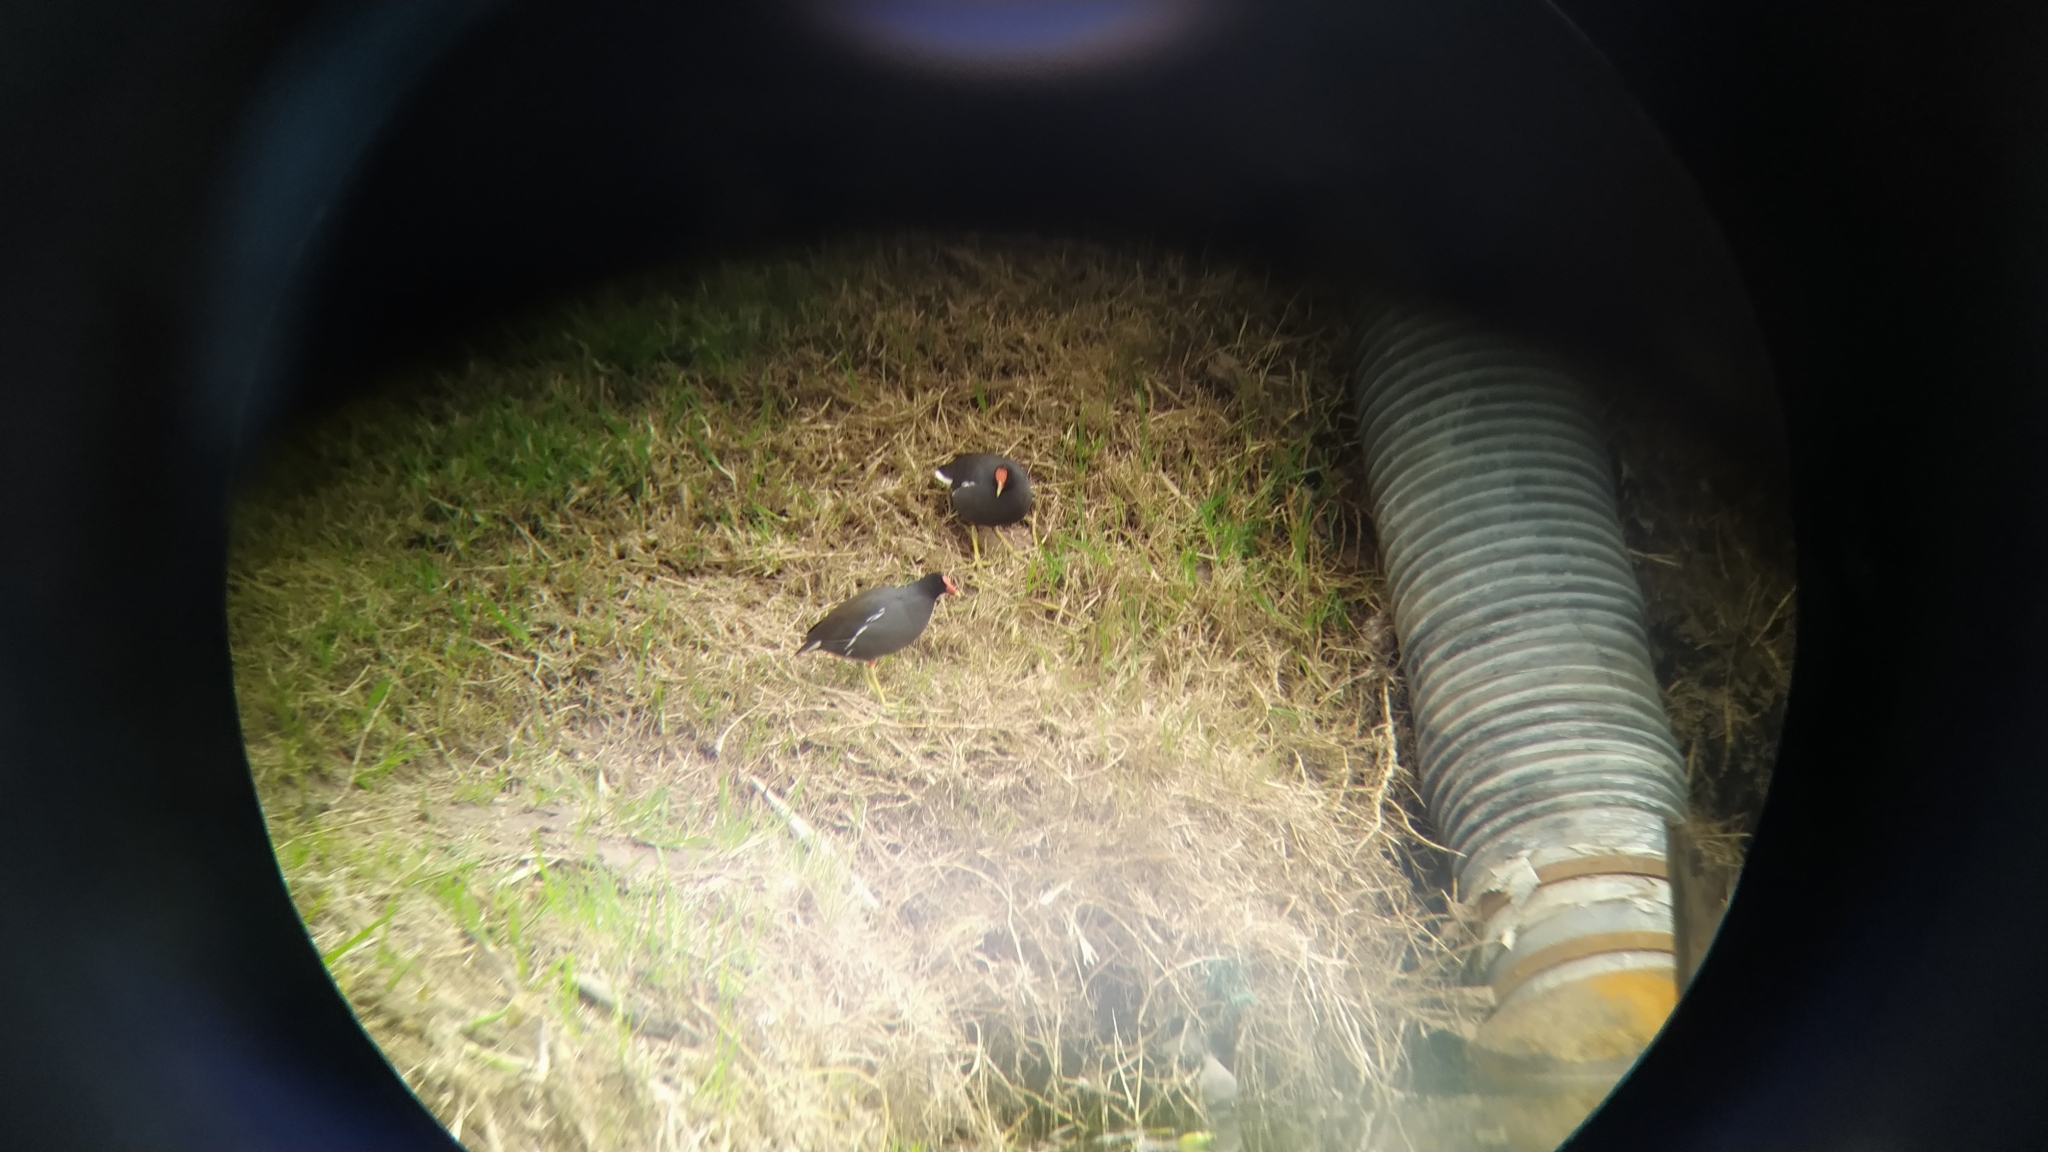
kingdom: Animalia
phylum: Chordata
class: Aves
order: Gruiformes
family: Rallidae
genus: Gallinula
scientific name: Gallinula chloropus
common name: Common moorhen
